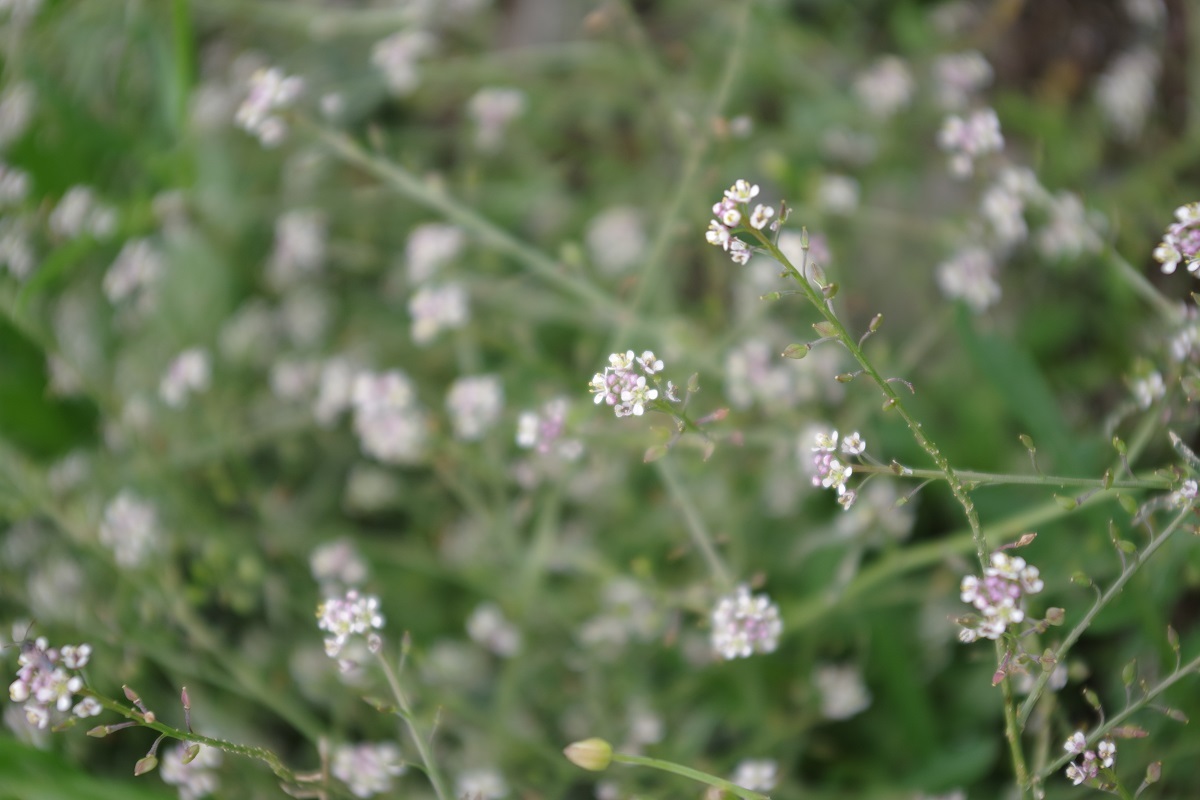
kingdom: Plantae
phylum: Tracheophyta
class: Magnoliopsida
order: Brassicales
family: Brassicaceae
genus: Lepidium
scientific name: Lepidium graminifolium
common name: Tall pepperwort
